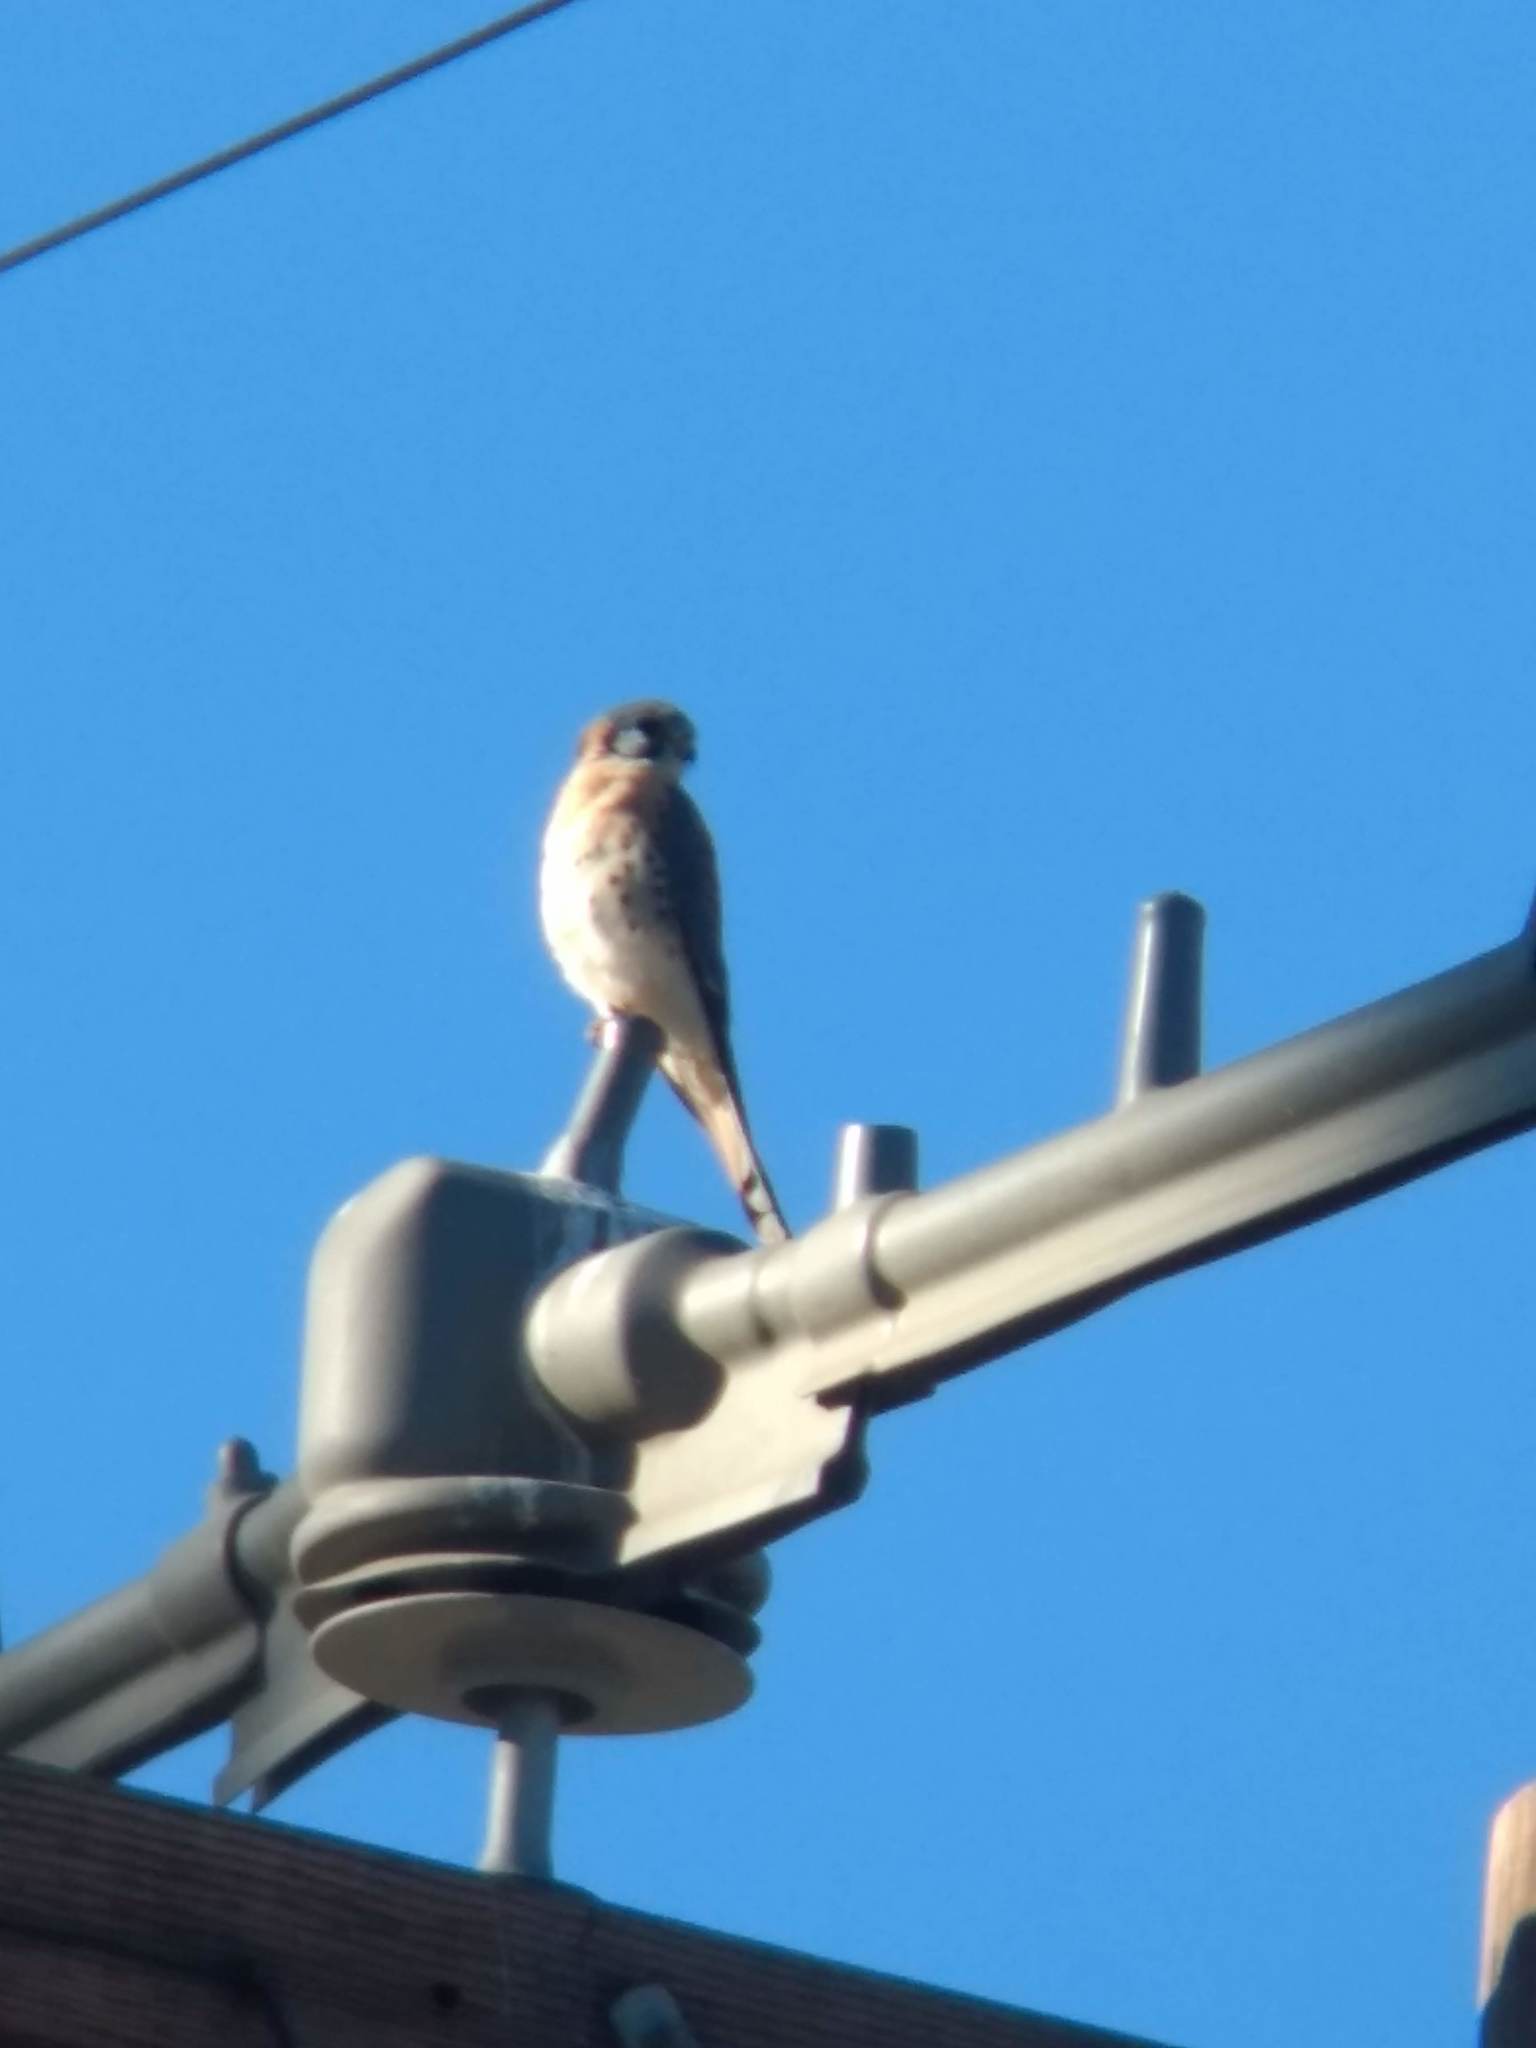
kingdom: Animalia
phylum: Chordata
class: Aves
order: Falconiformes
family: Falconidae
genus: Falco
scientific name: Falco sparverius
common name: American kestrel
